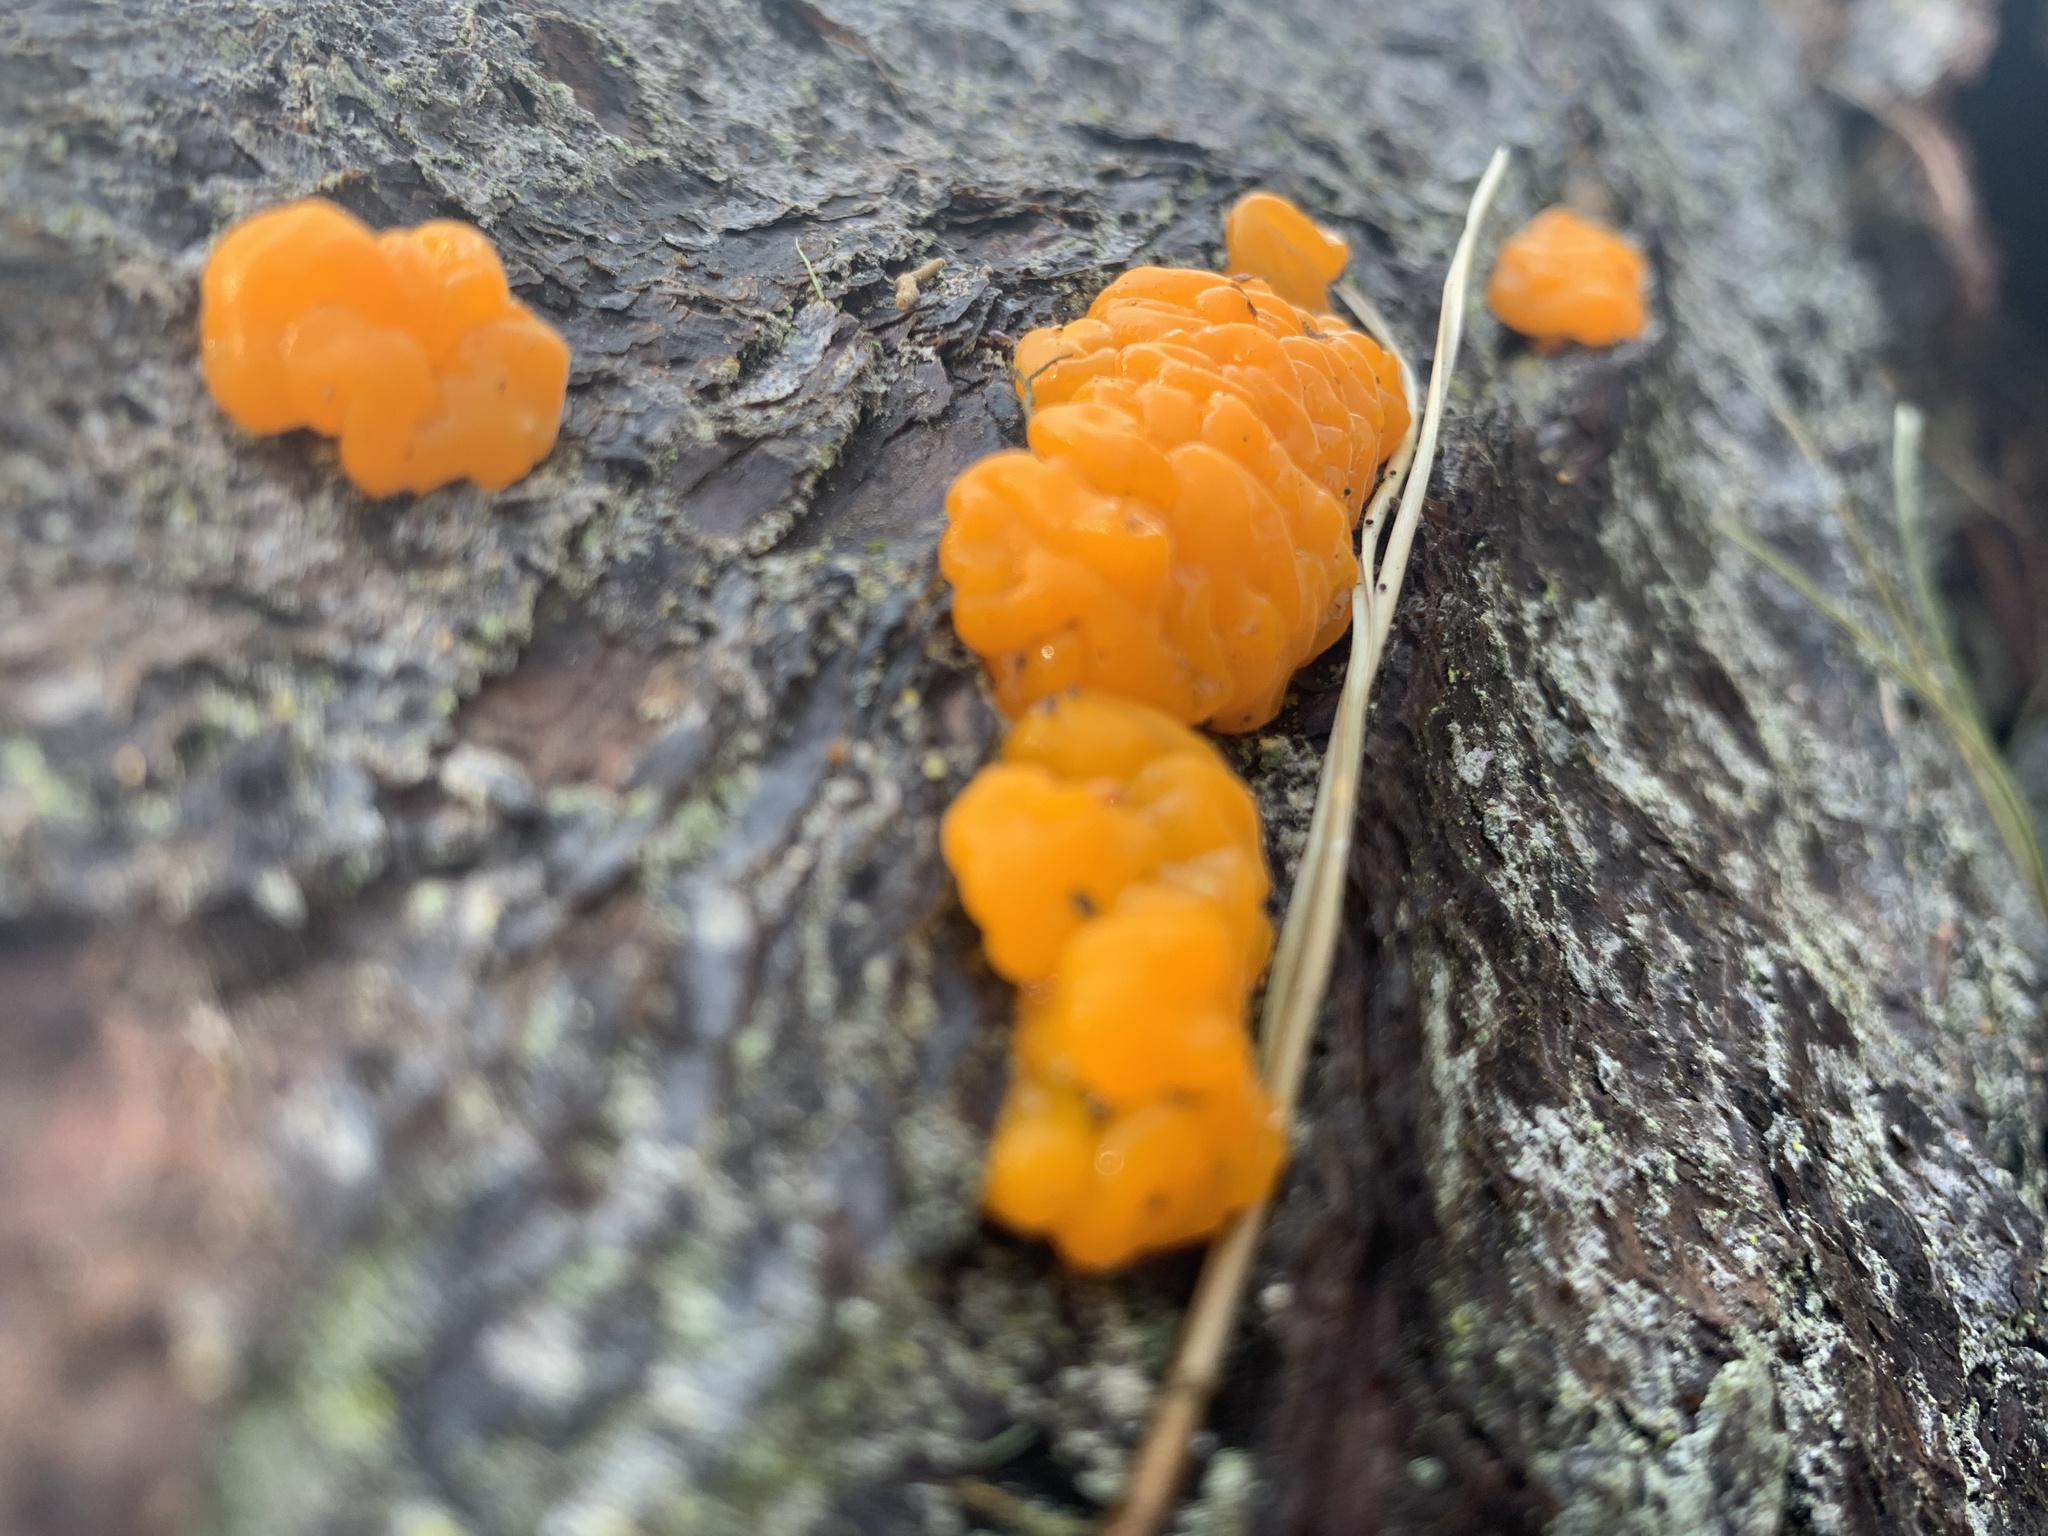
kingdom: Fungi
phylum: Basidiomycota
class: Dacrymycetes
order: Dacrymycetales
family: Dacrymycetaceae
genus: Dacrymyces
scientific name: Dacrymyces chrysospermus
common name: Orange jelly spot
